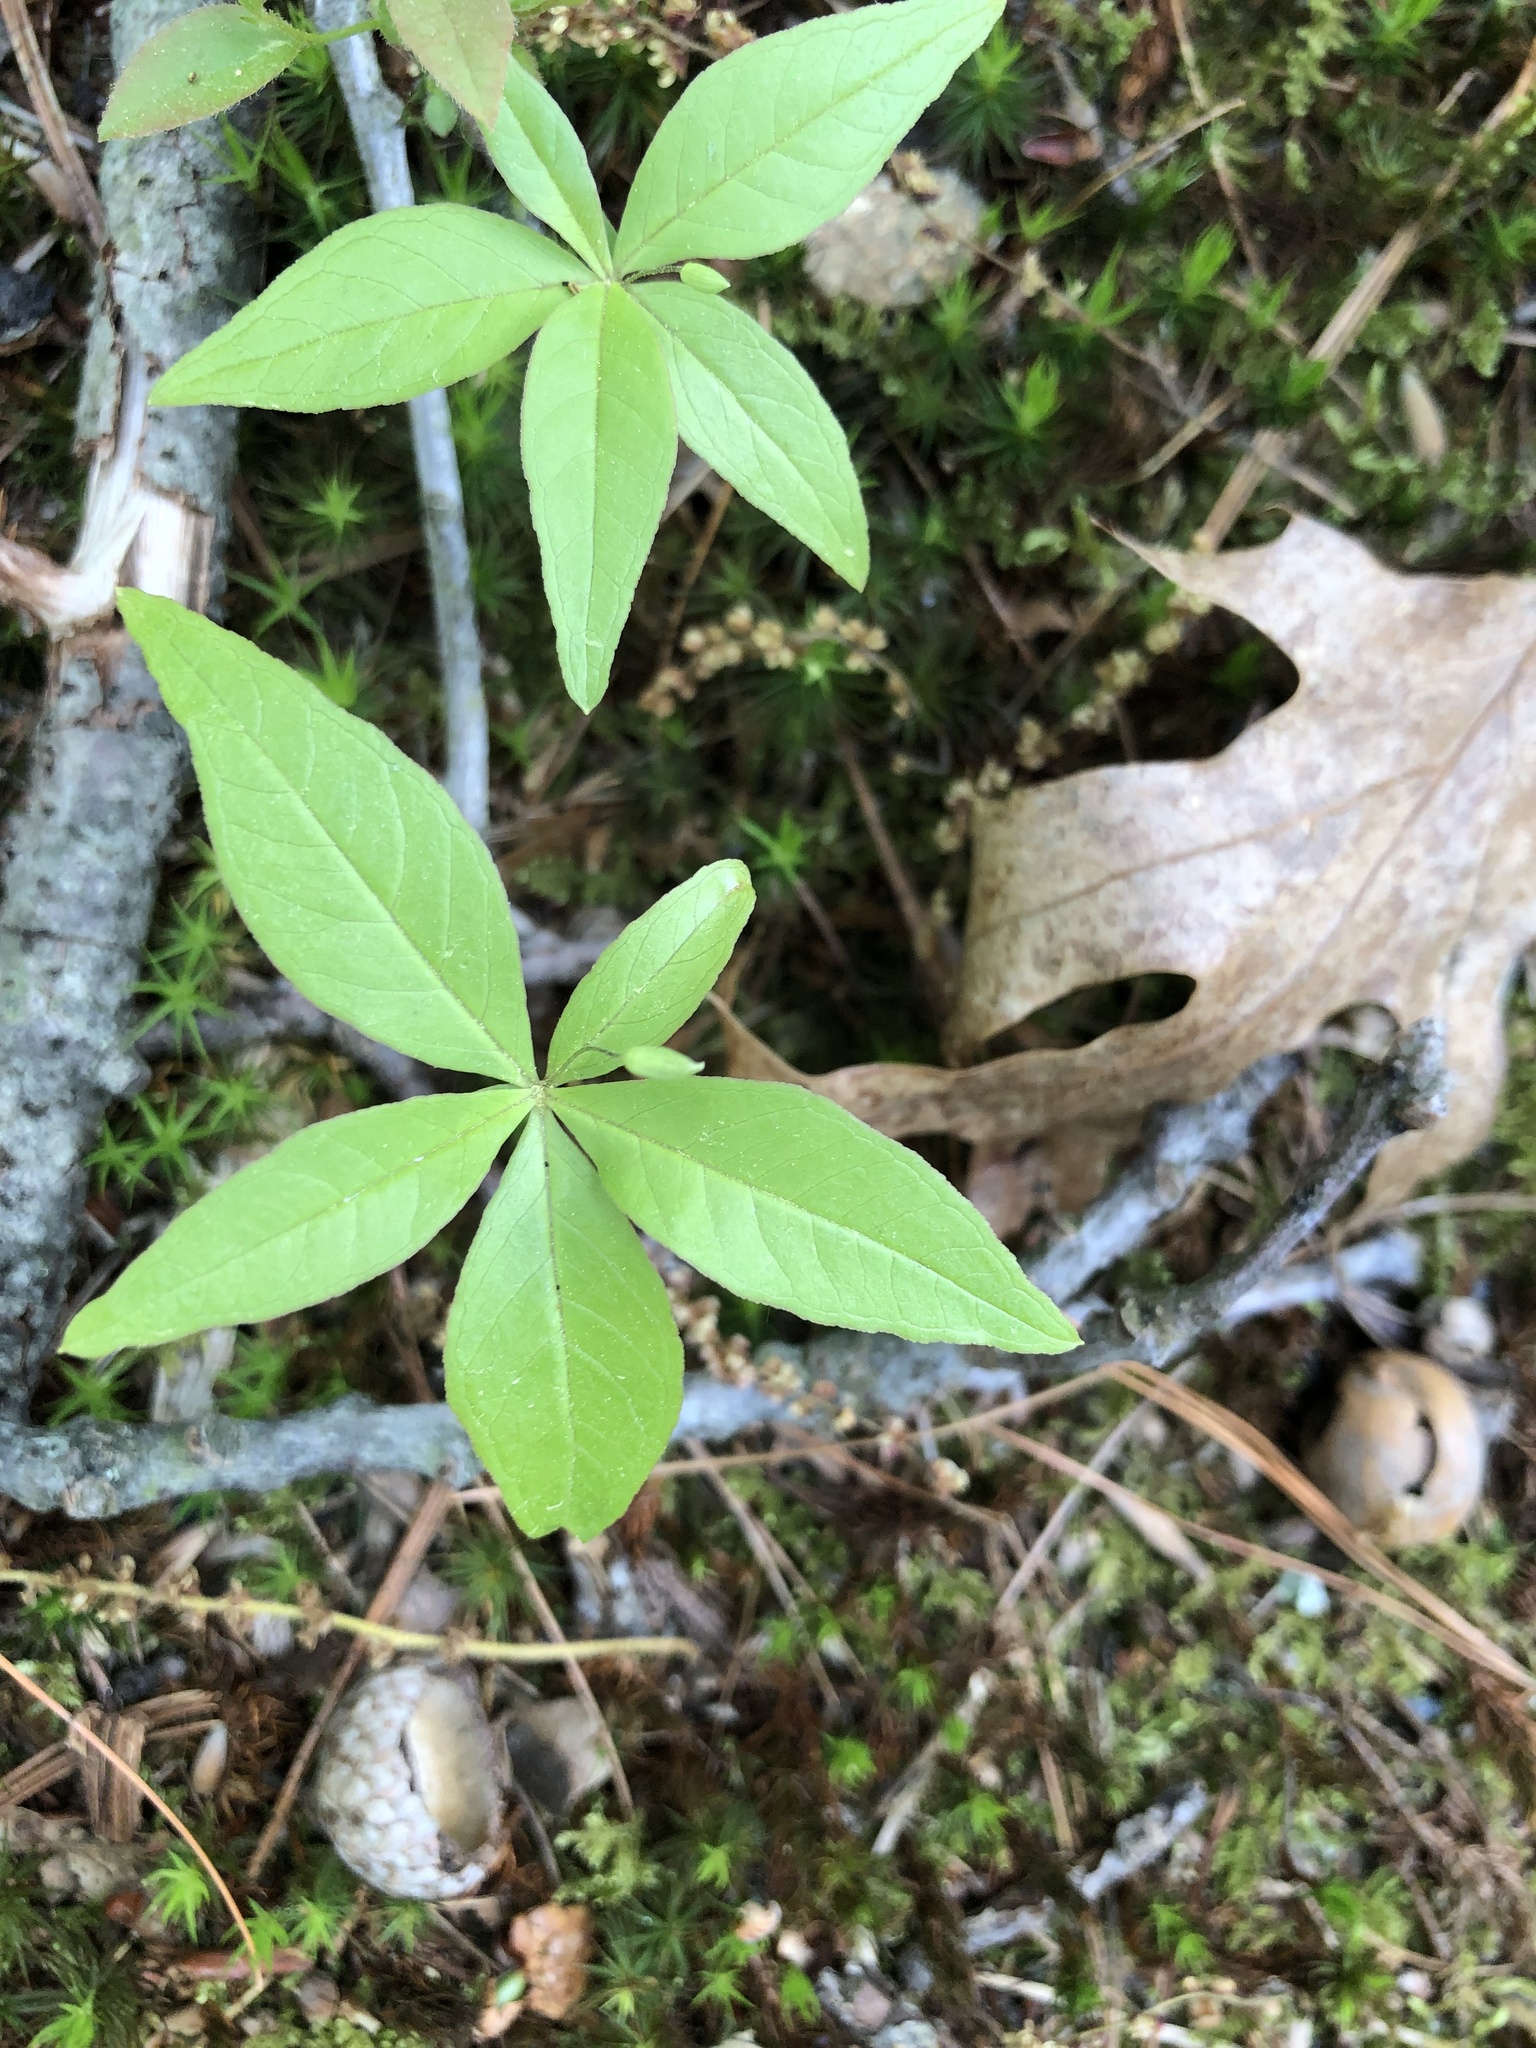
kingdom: Plantae
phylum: Tracheophyta
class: Magnoliopsida
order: Ericales
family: Primulaceae
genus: Lysimachia
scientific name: Lysimachia borealis
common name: American starflower
